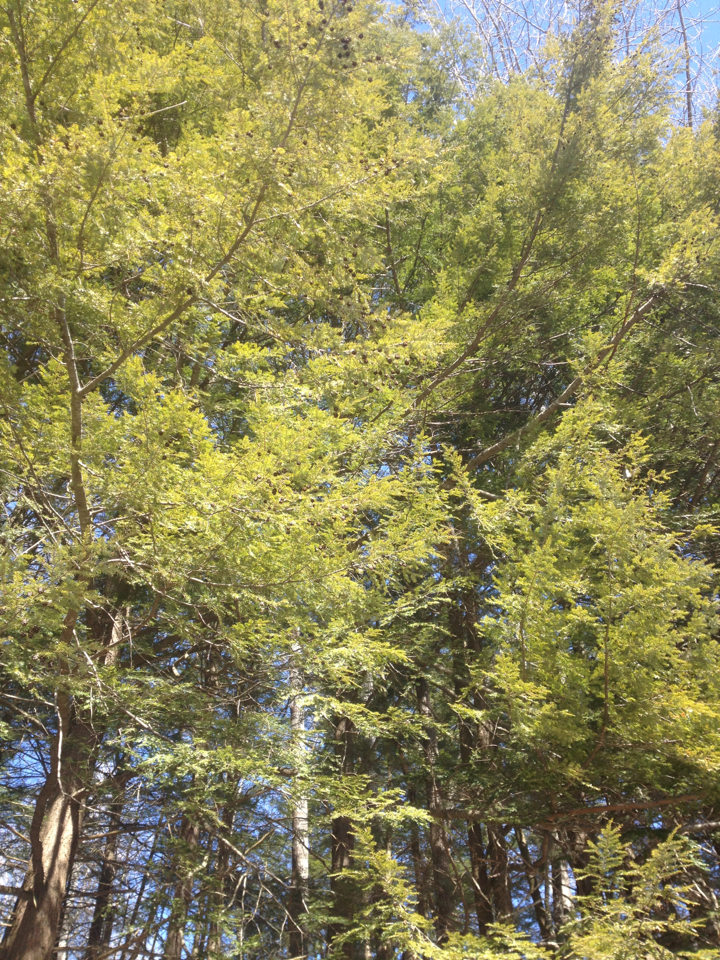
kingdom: Plantae
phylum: Tracheophyta
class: Pinopsida
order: Pinales
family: Pinaceae
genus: Tsuga
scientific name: Tsuga canadensis
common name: Eastern hemlock
